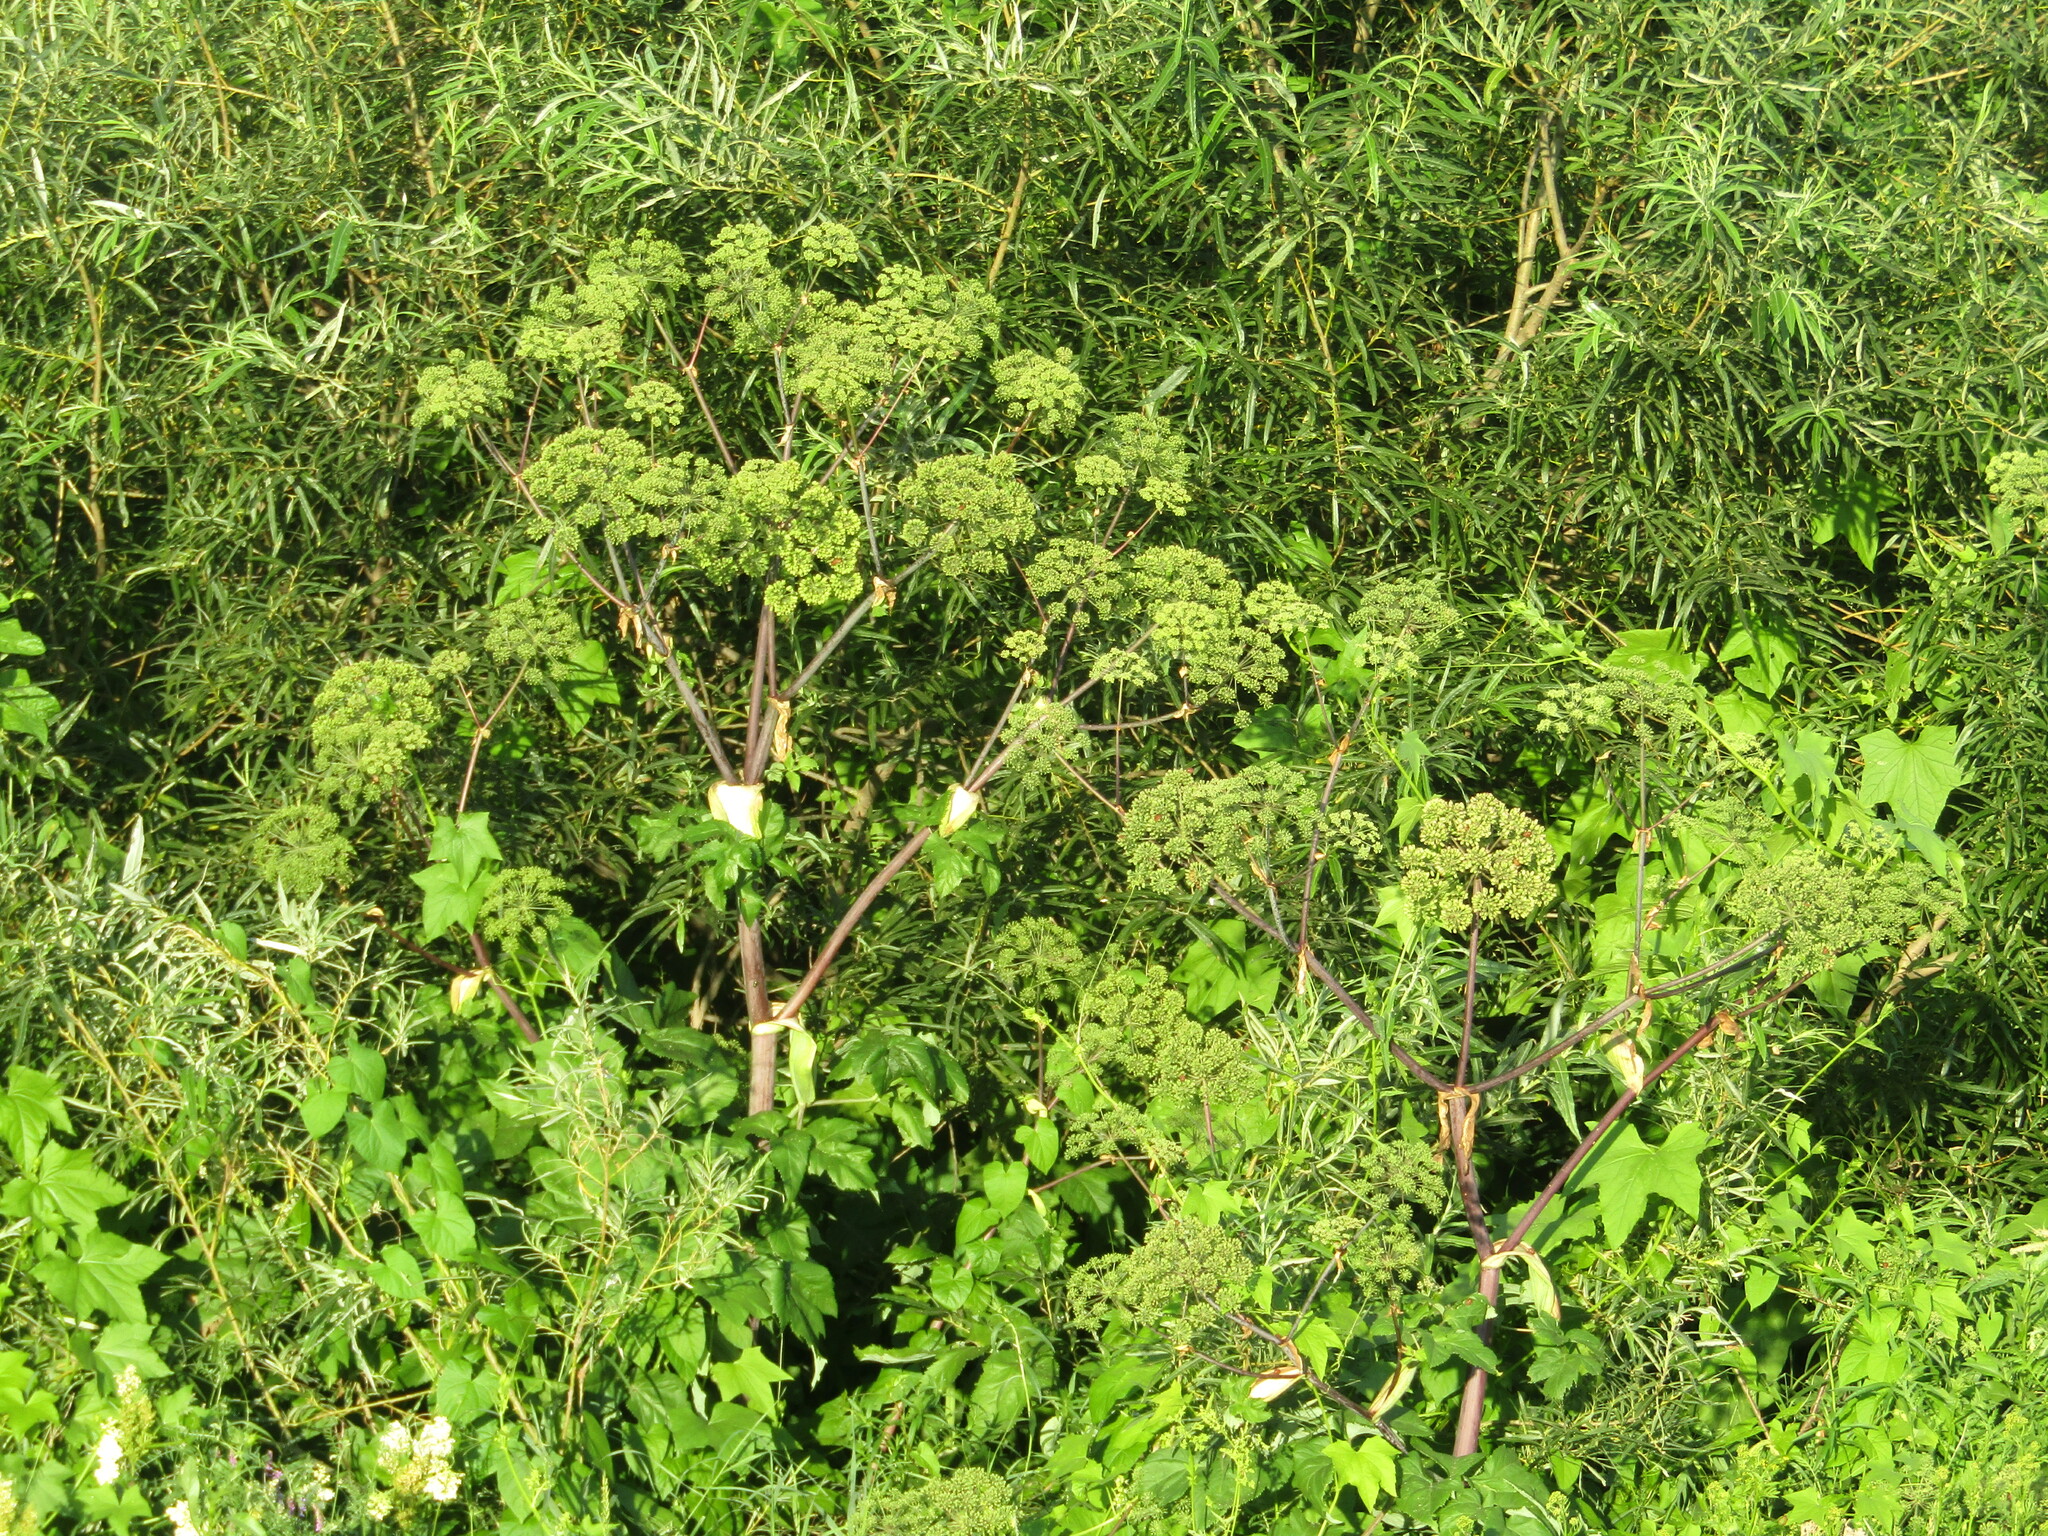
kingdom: Plantae
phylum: Tracheophyta
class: Magnoliopsida
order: Apiales
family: Apiaceae
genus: Angelica
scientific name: Angelica archangelica
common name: Garden angelica
